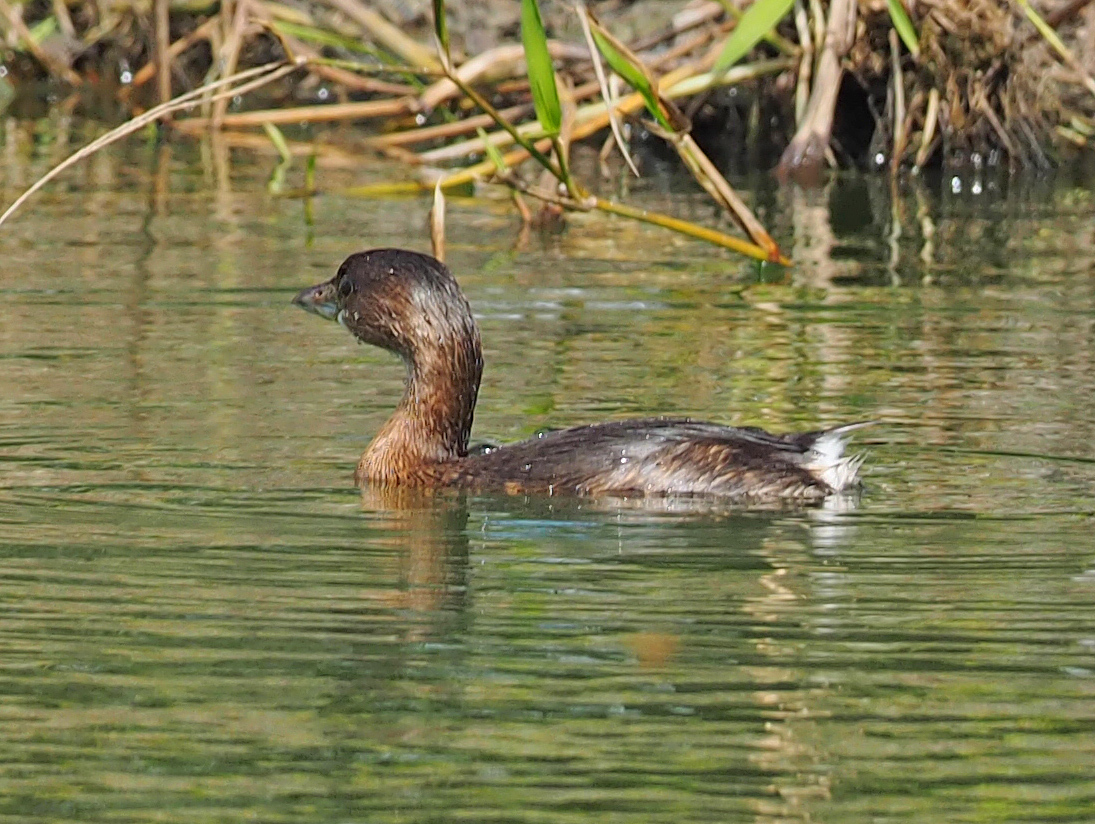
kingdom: Animalia
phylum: Chordata
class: Aves
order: Podicipediformes
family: Podicipedidae
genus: Podilymbus
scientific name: Podilymbus podiceps
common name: Pied-billed grebe
